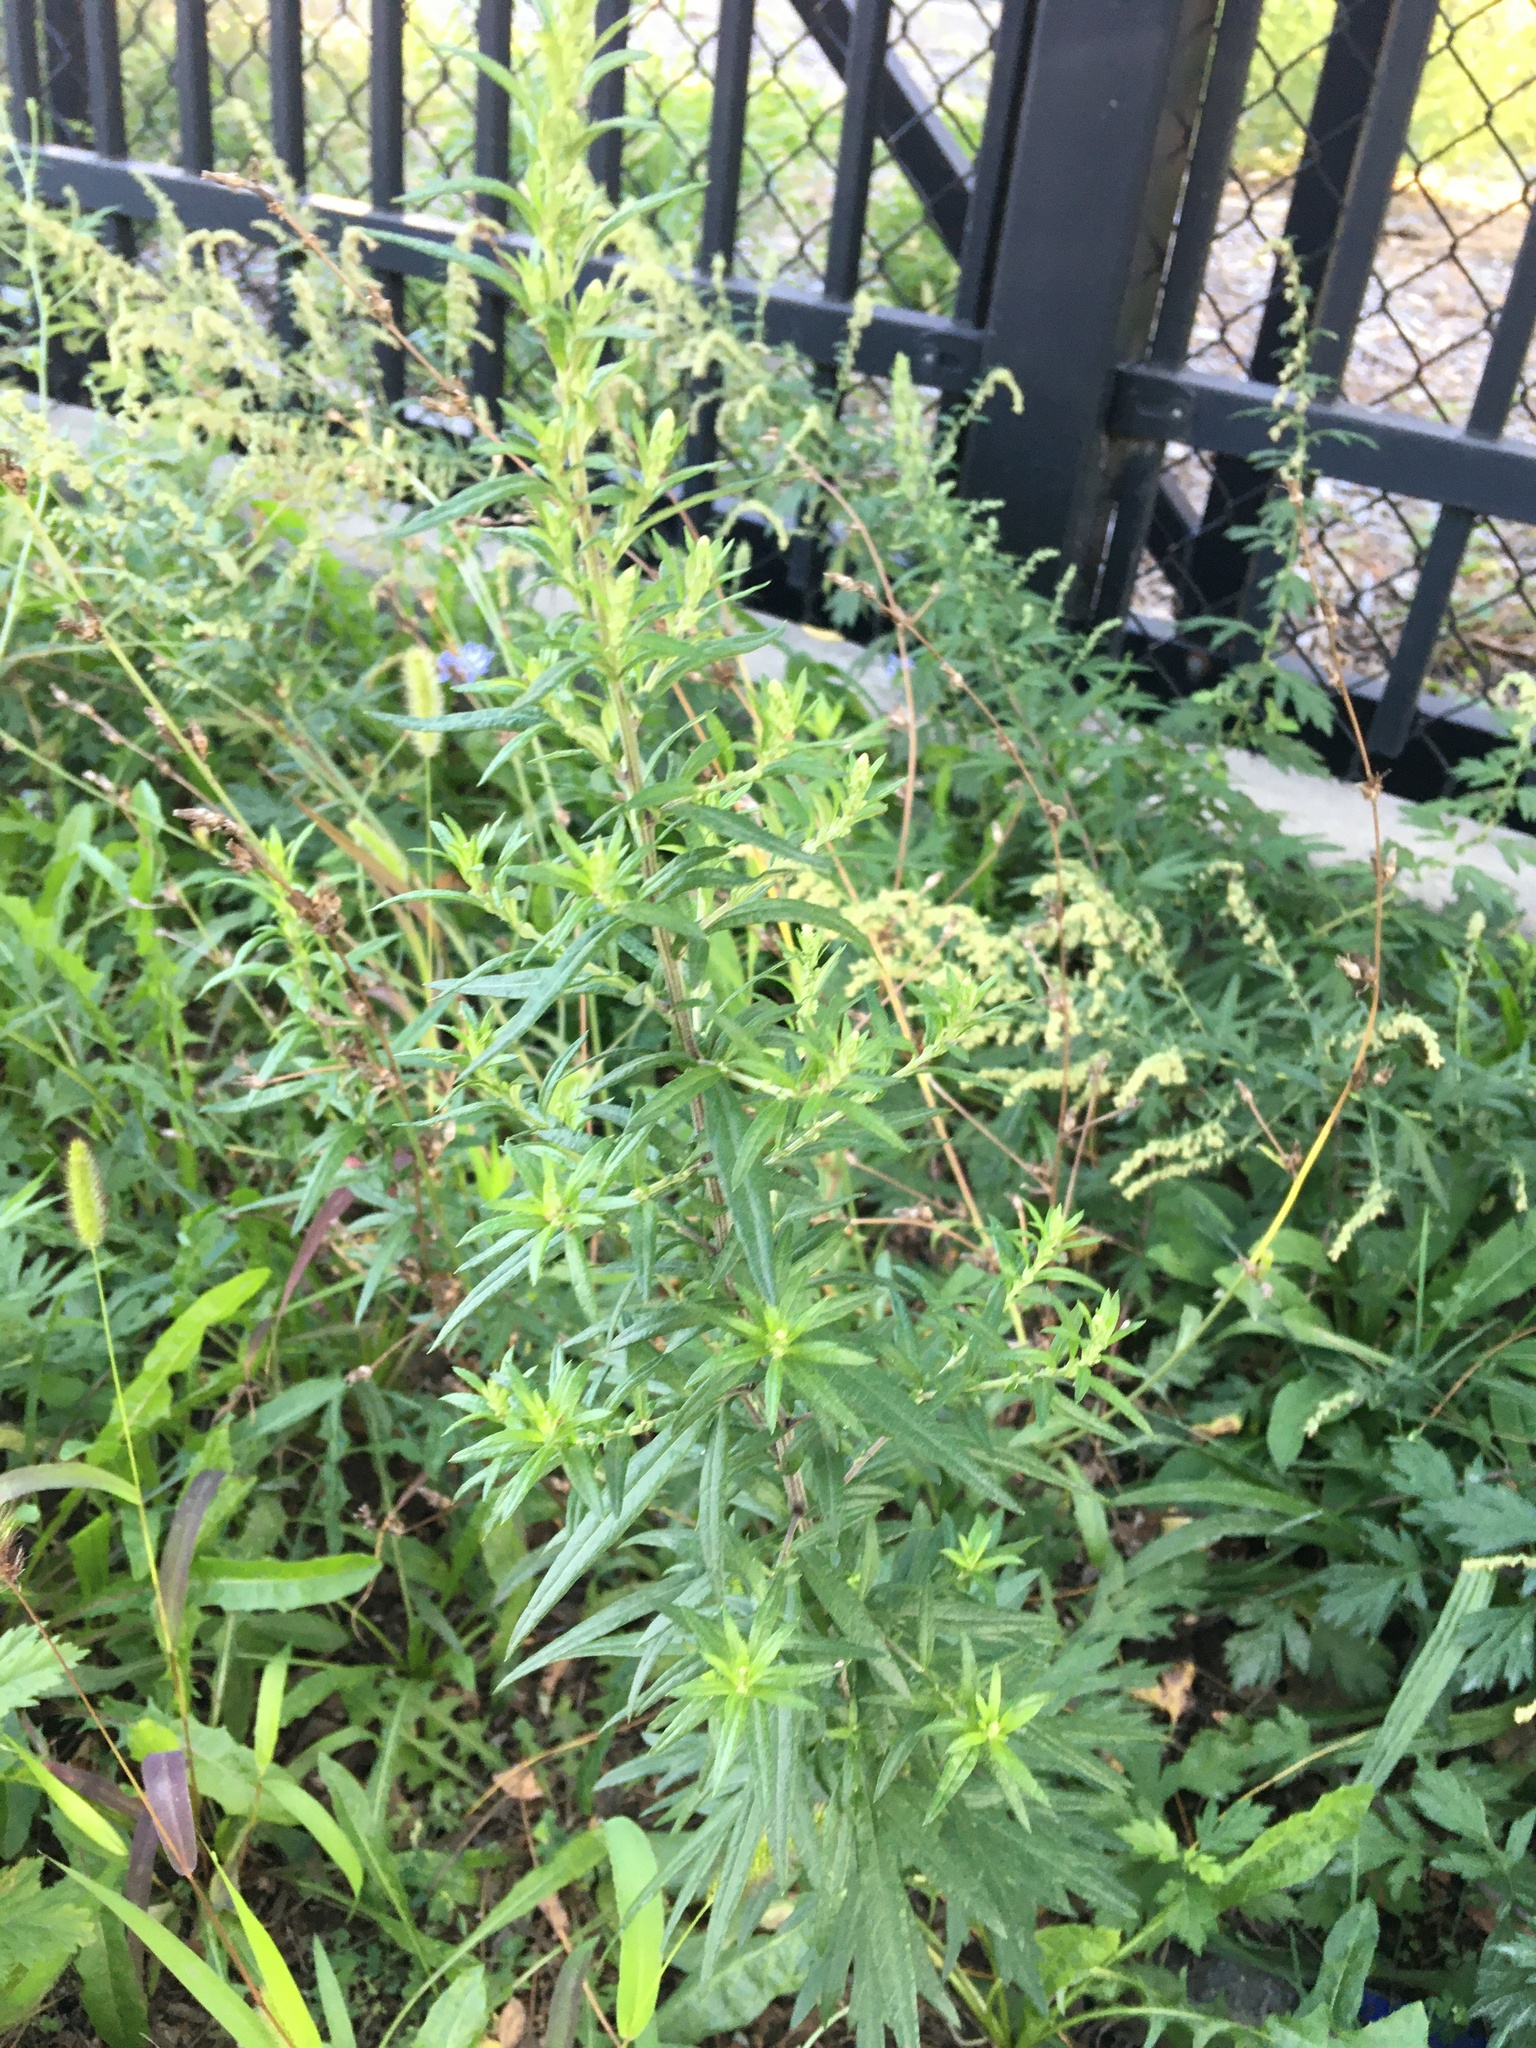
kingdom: Plantae
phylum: Tracheophyta
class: Magnoliopsida
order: Asterales
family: Asteraceae
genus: Artemisia
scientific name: Artemisia vulgaris
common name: Mugwort
